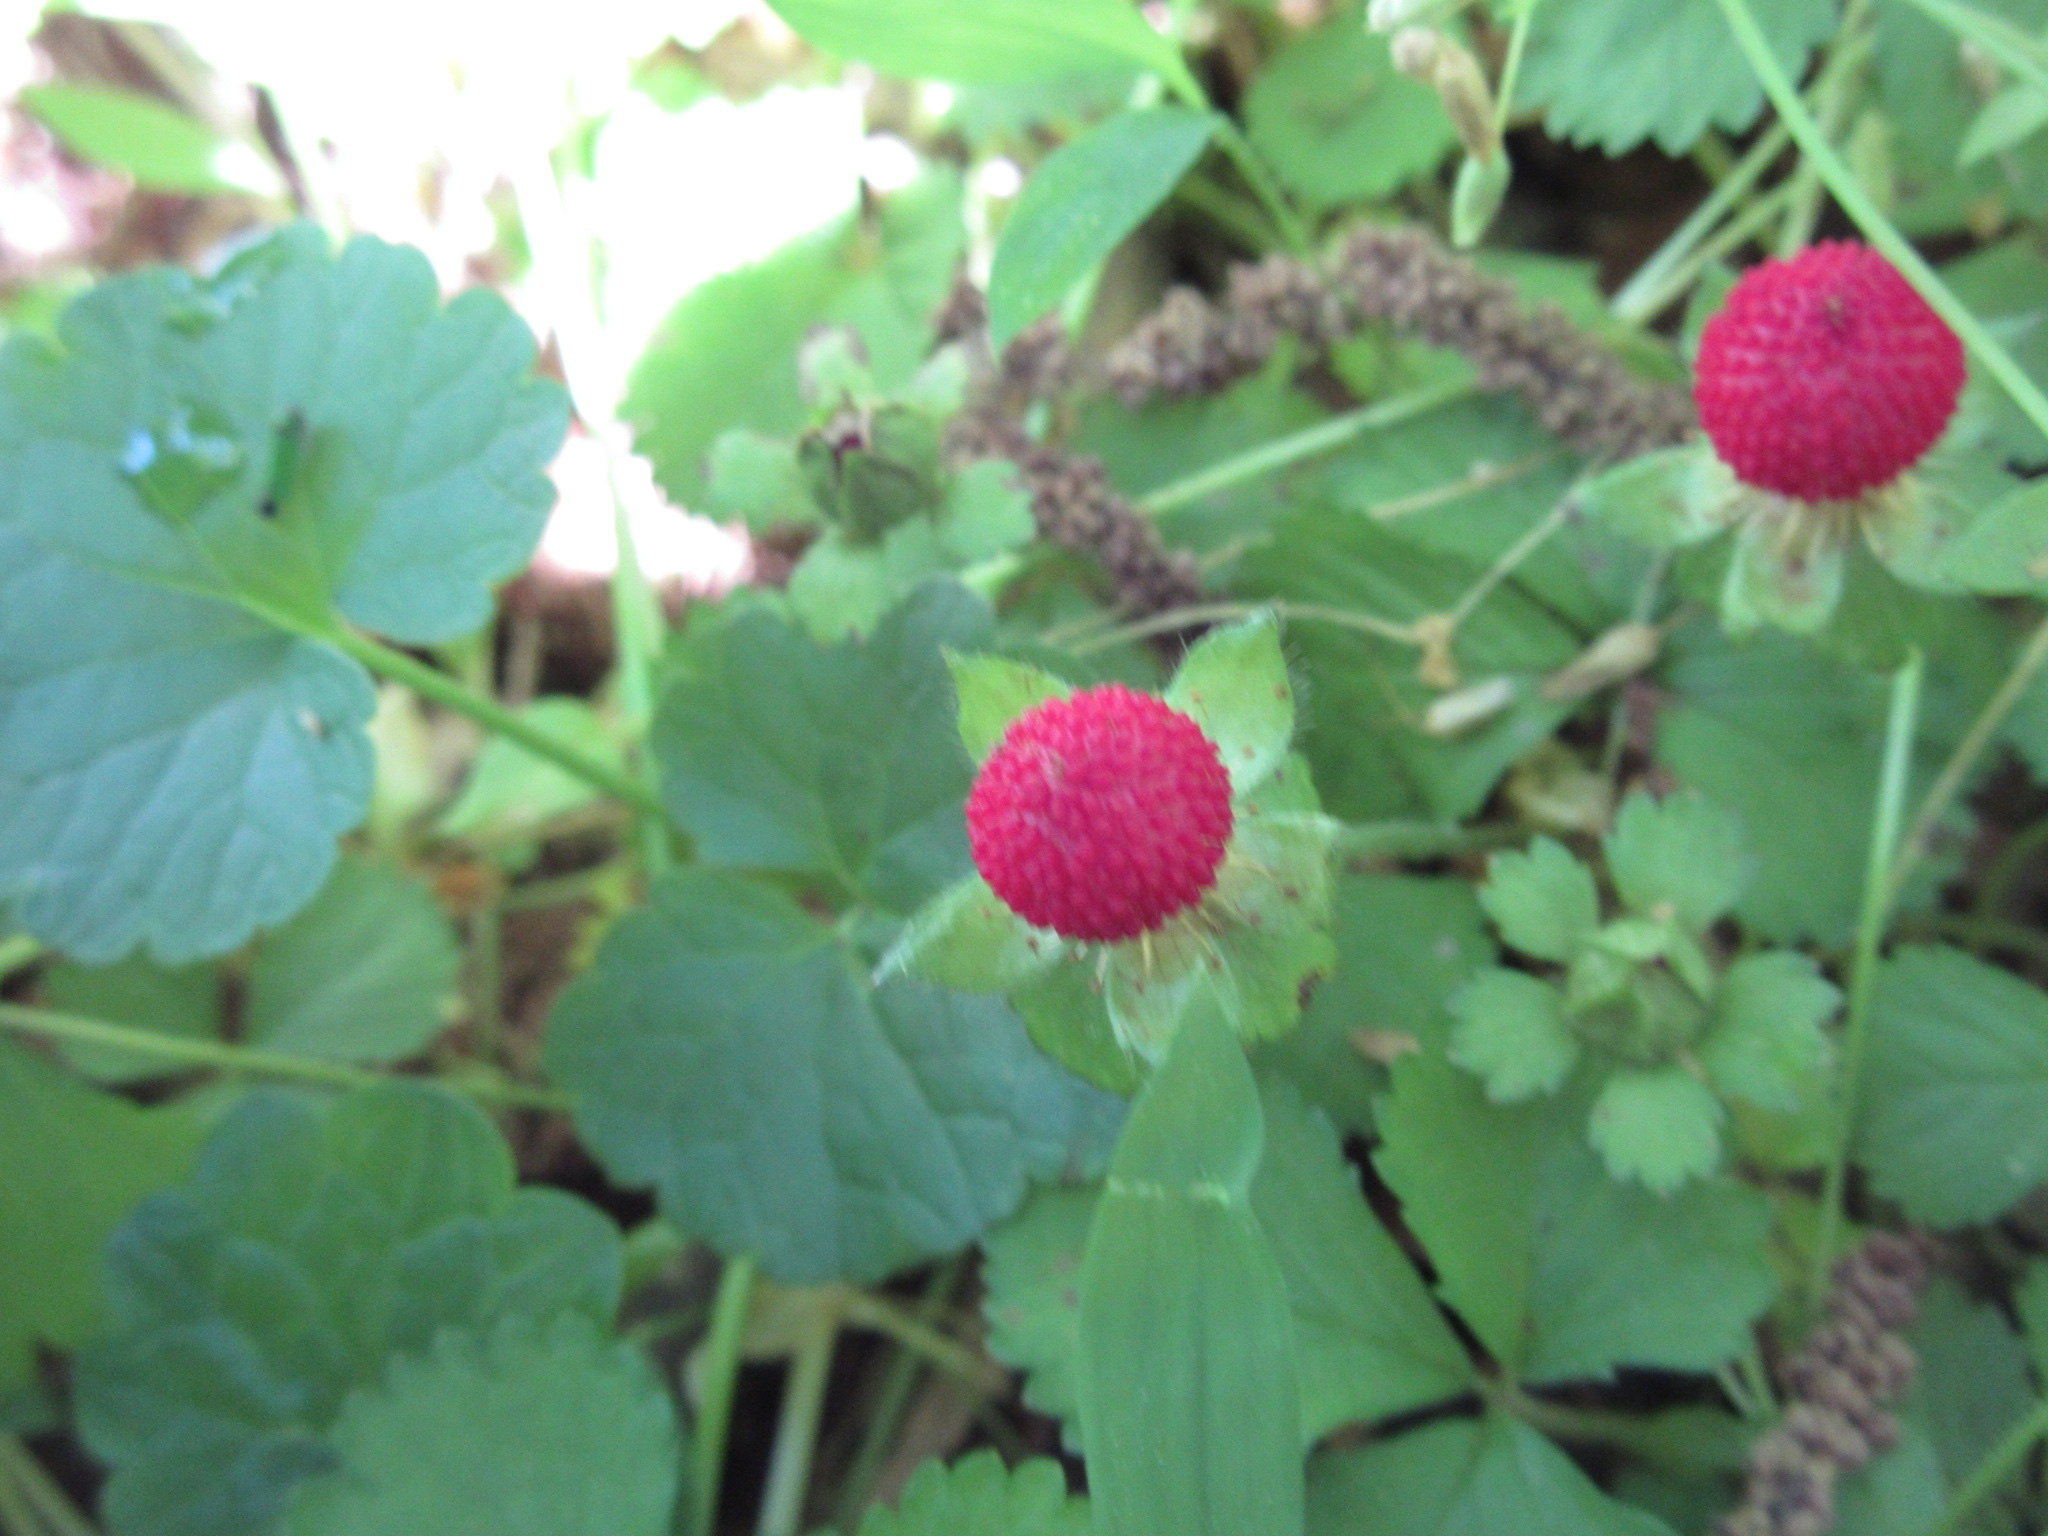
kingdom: Plantae
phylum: Tracheophyta
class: Magnoliopsida
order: Rosales
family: Rosaceae
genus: Potentilla
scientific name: Potentilla indica
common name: Yellow-flowered strawberry
